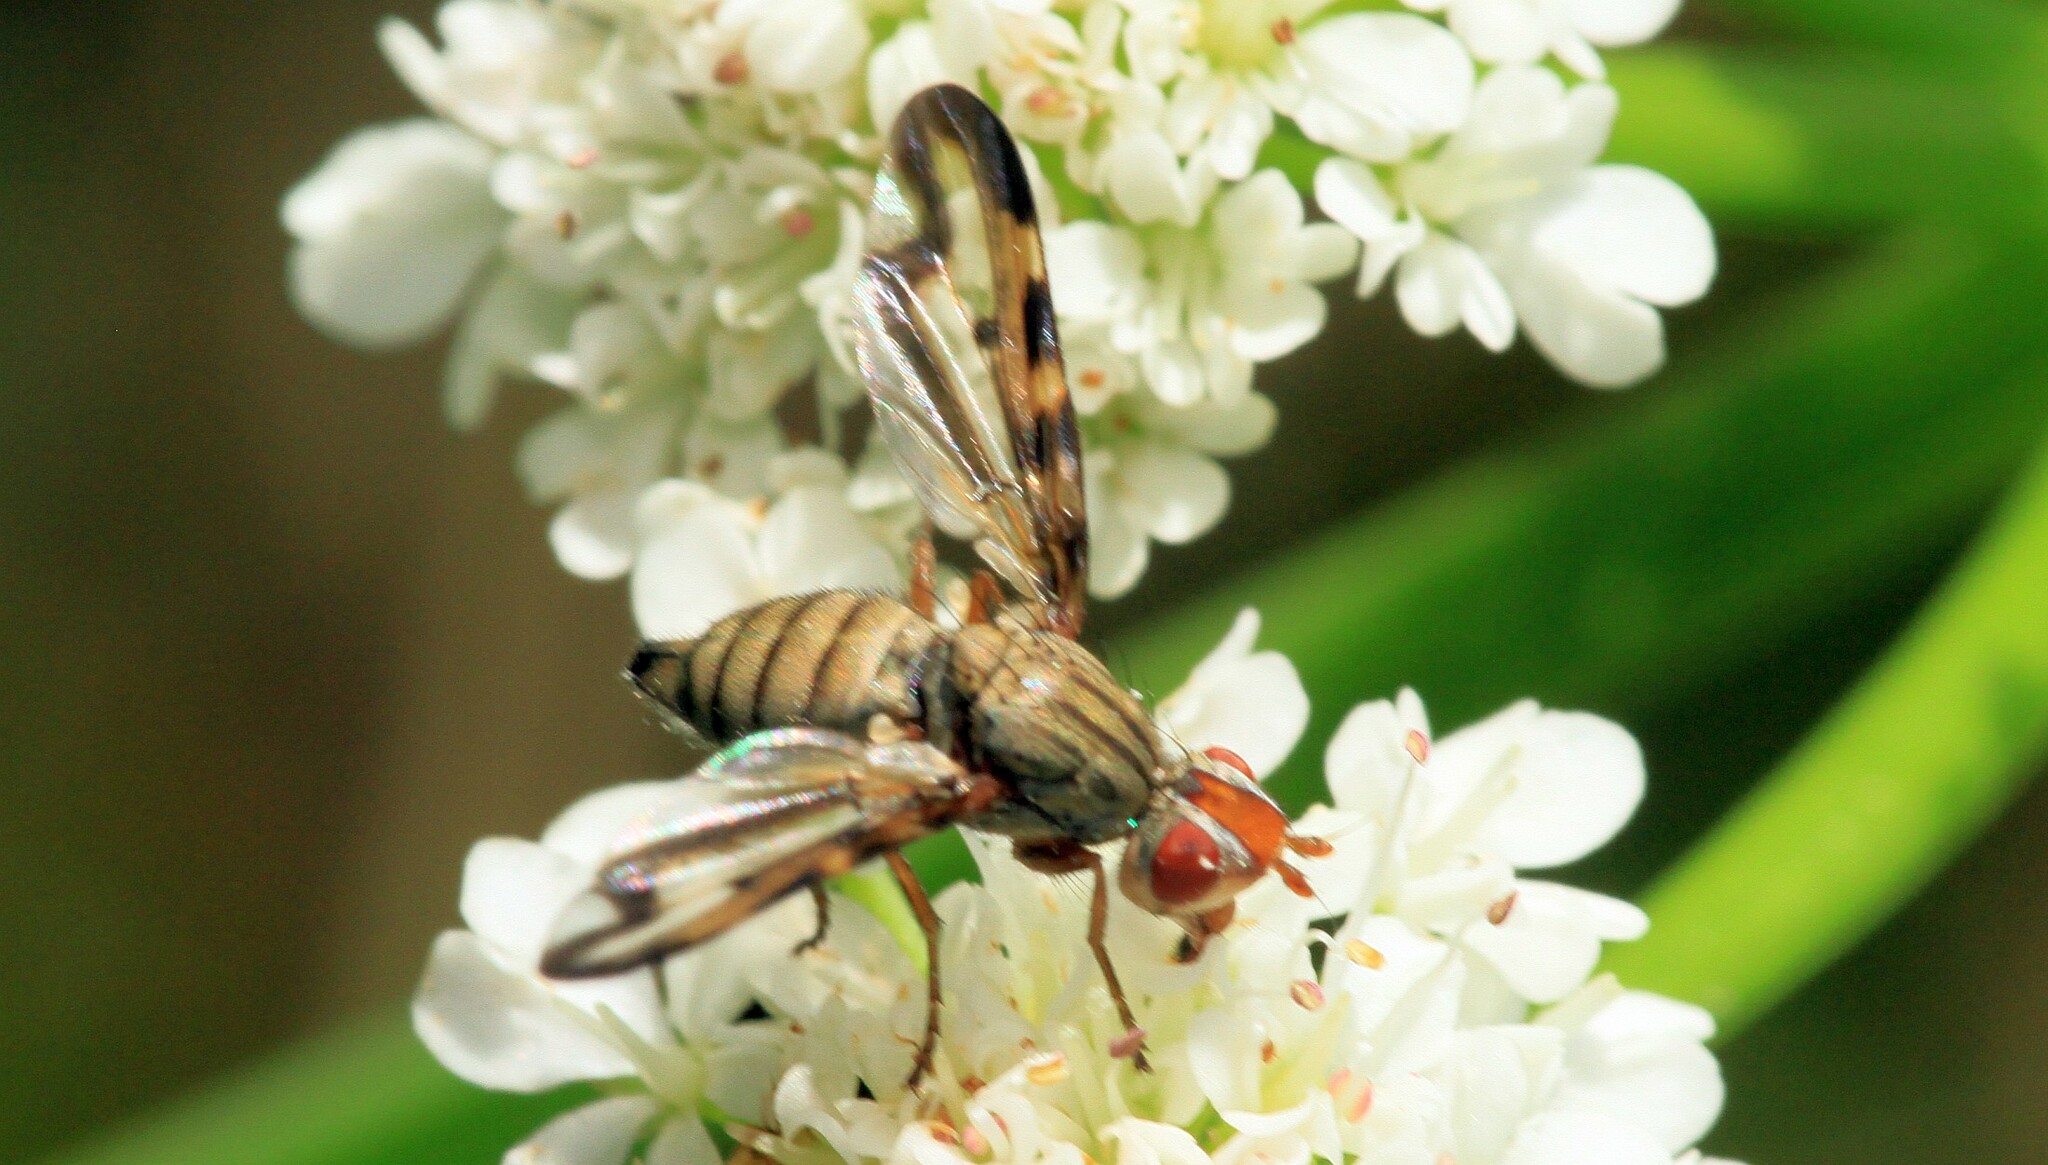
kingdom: Animalia
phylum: Arthropoda
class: Insecta
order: Diptera
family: Ulidiidae
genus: Otites
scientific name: Otites lamed
